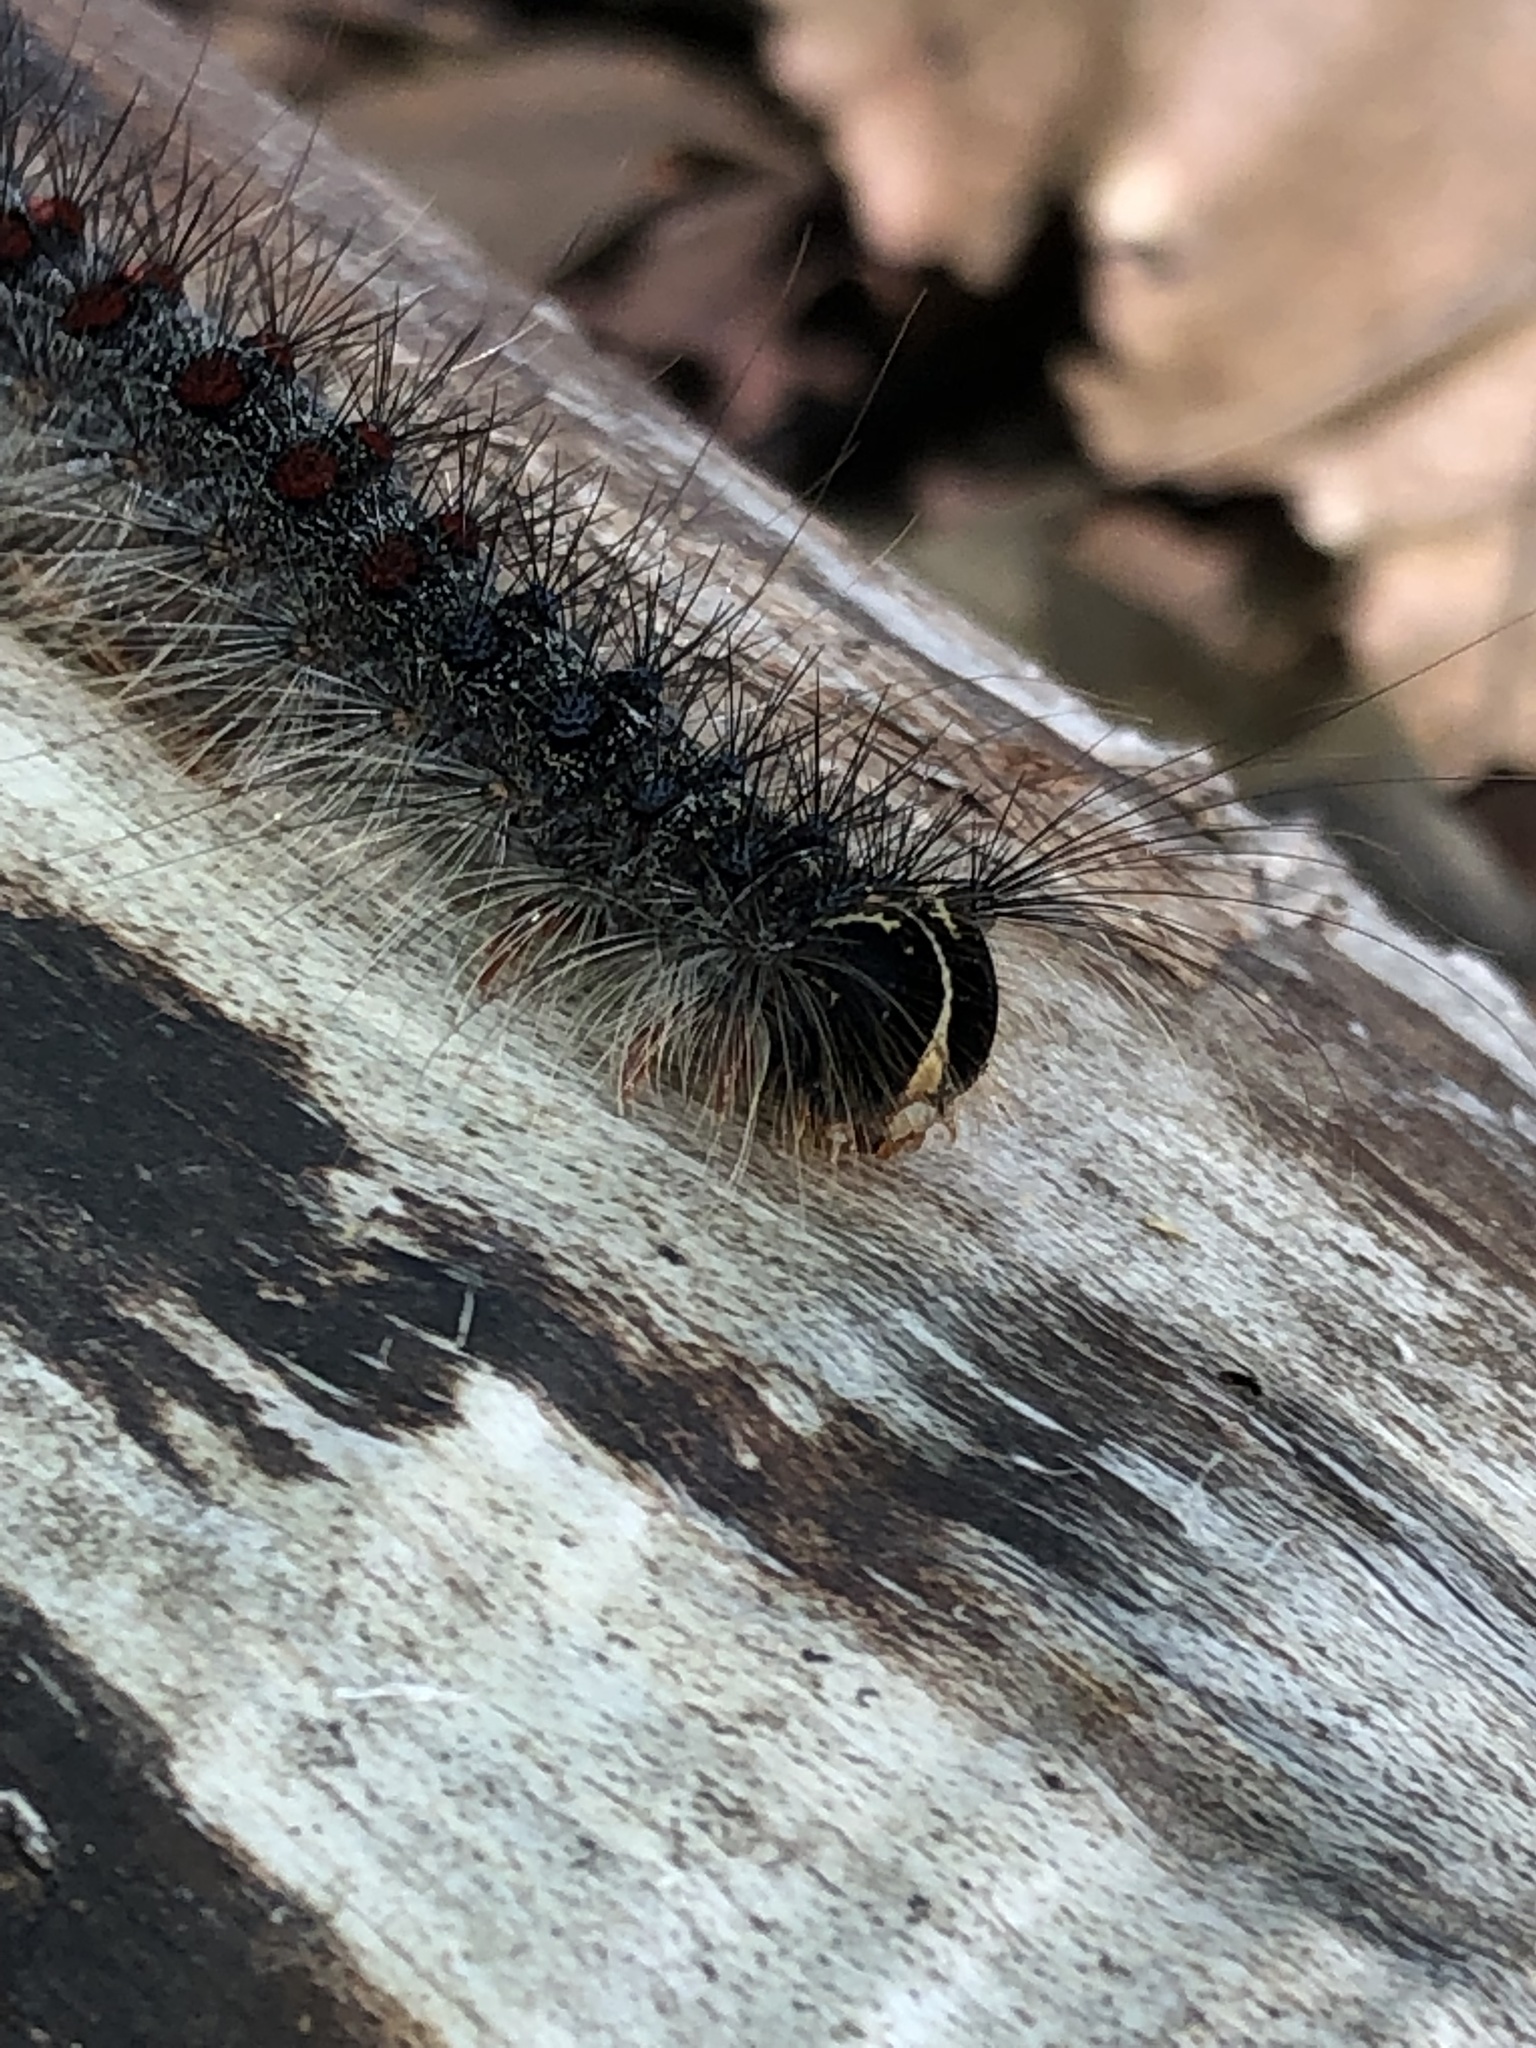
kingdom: Animalia
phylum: Arthropoda
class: Insecta
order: Lepidoptera
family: Erebidae
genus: Lymantria
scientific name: Lymantria dispar
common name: Gypsy moth
